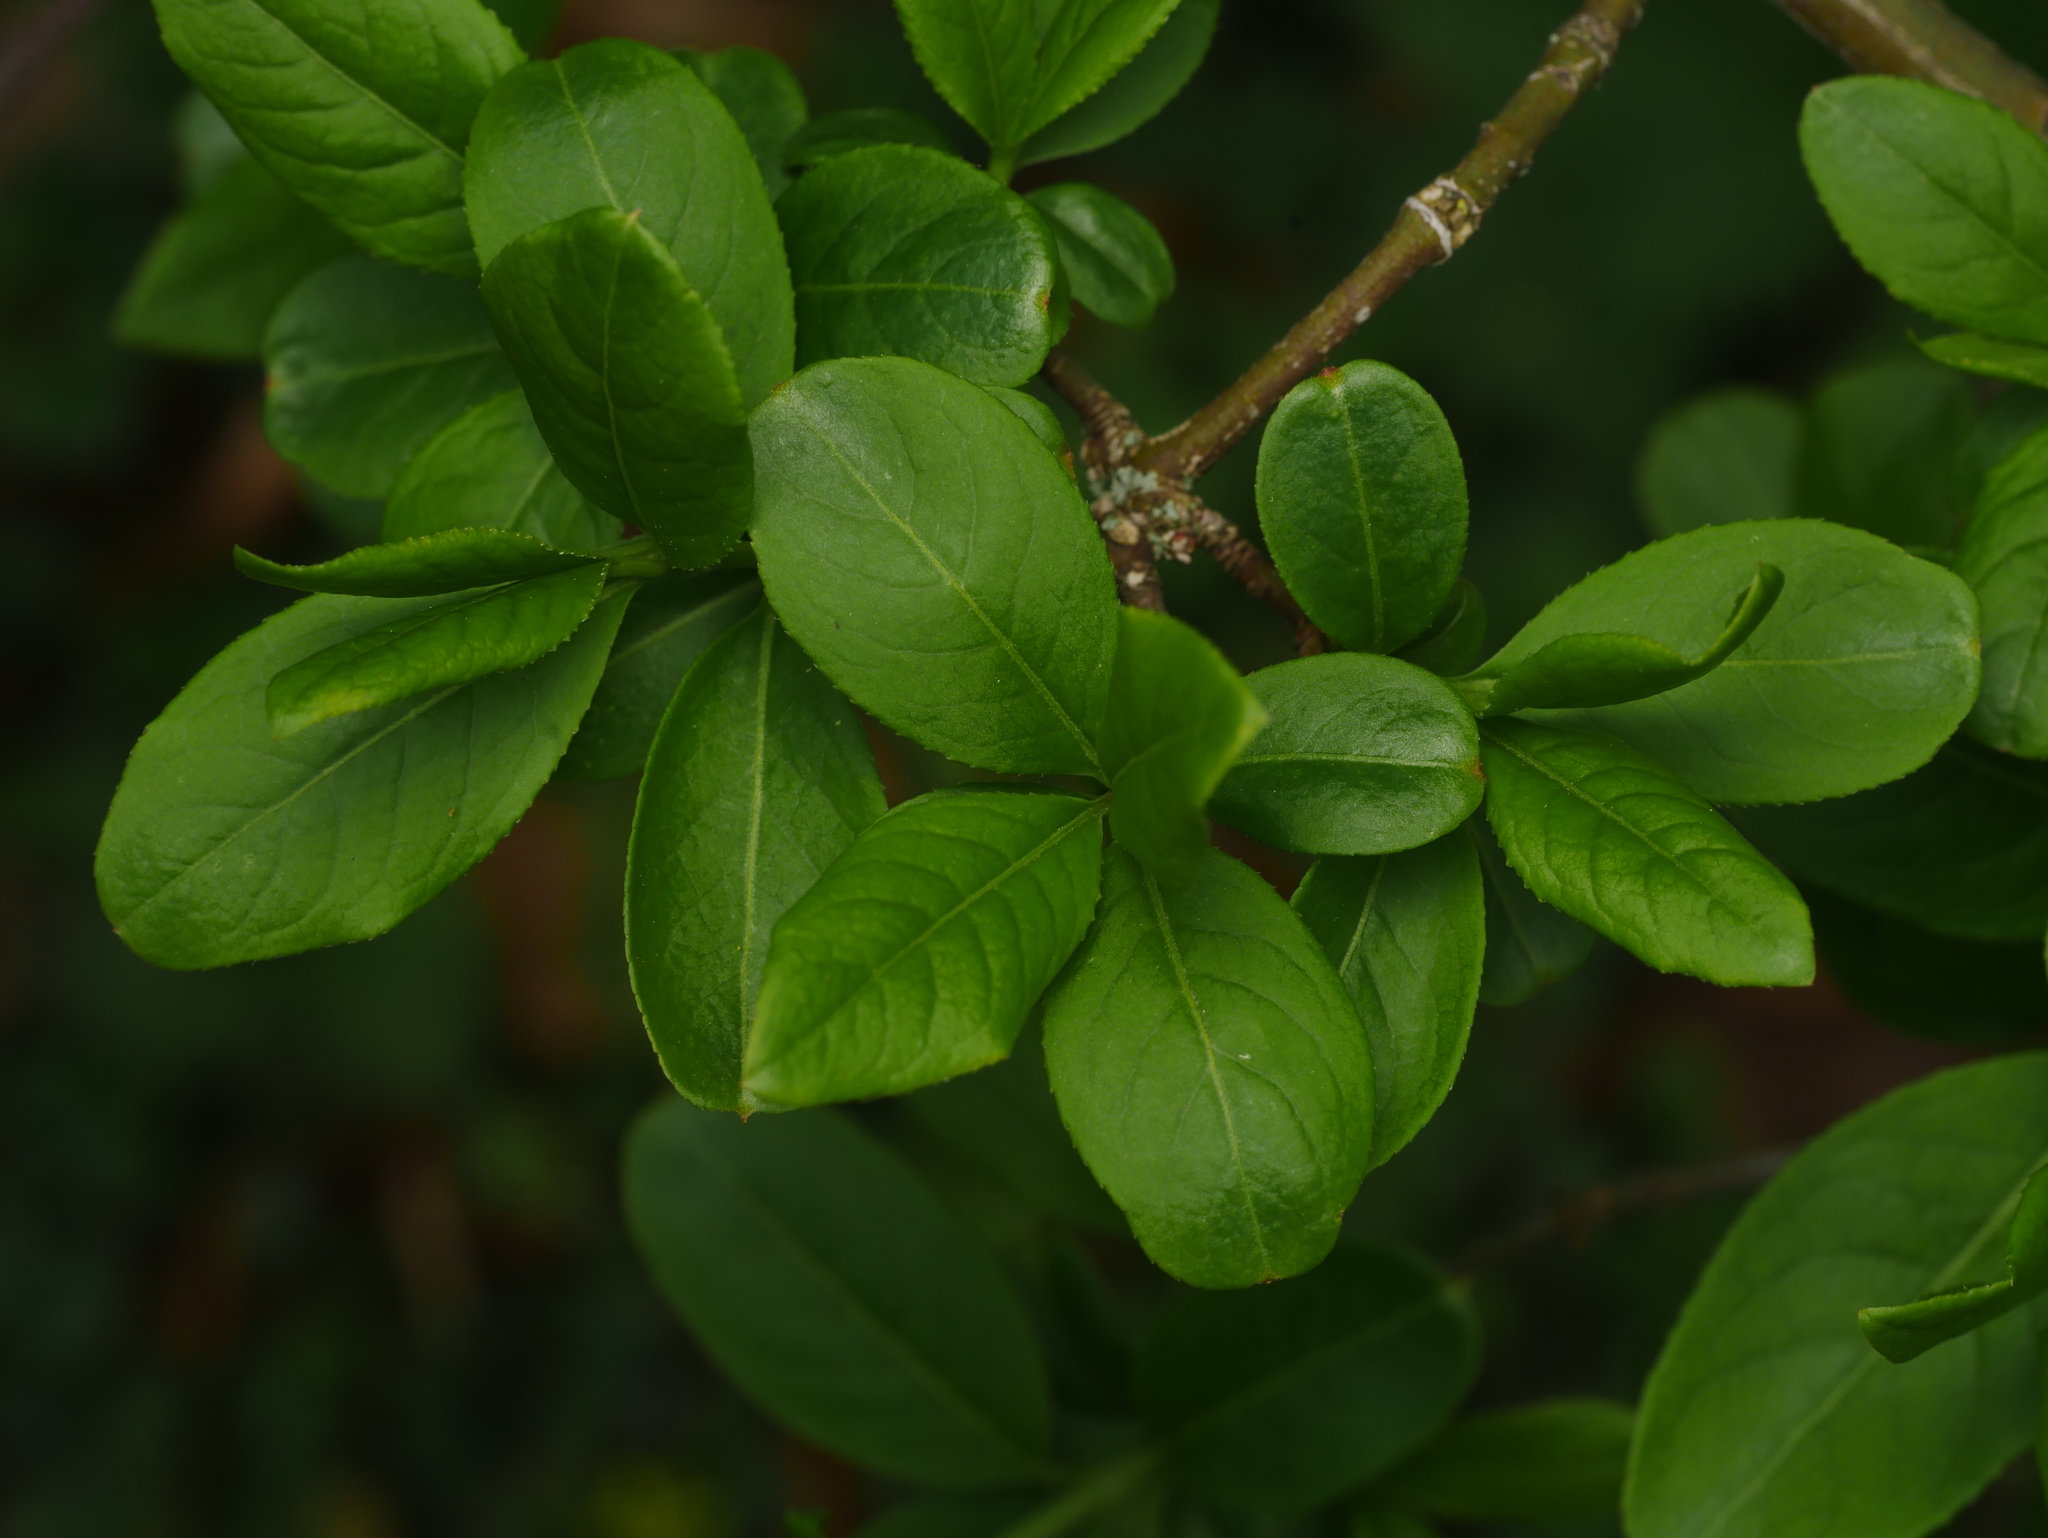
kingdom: Plantae
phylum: Tracheophyta
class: Magnoliopsida
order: Celastrales
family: Celastraceae
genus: Euonymus
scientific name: Euonymus europaeus
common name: Spindle
